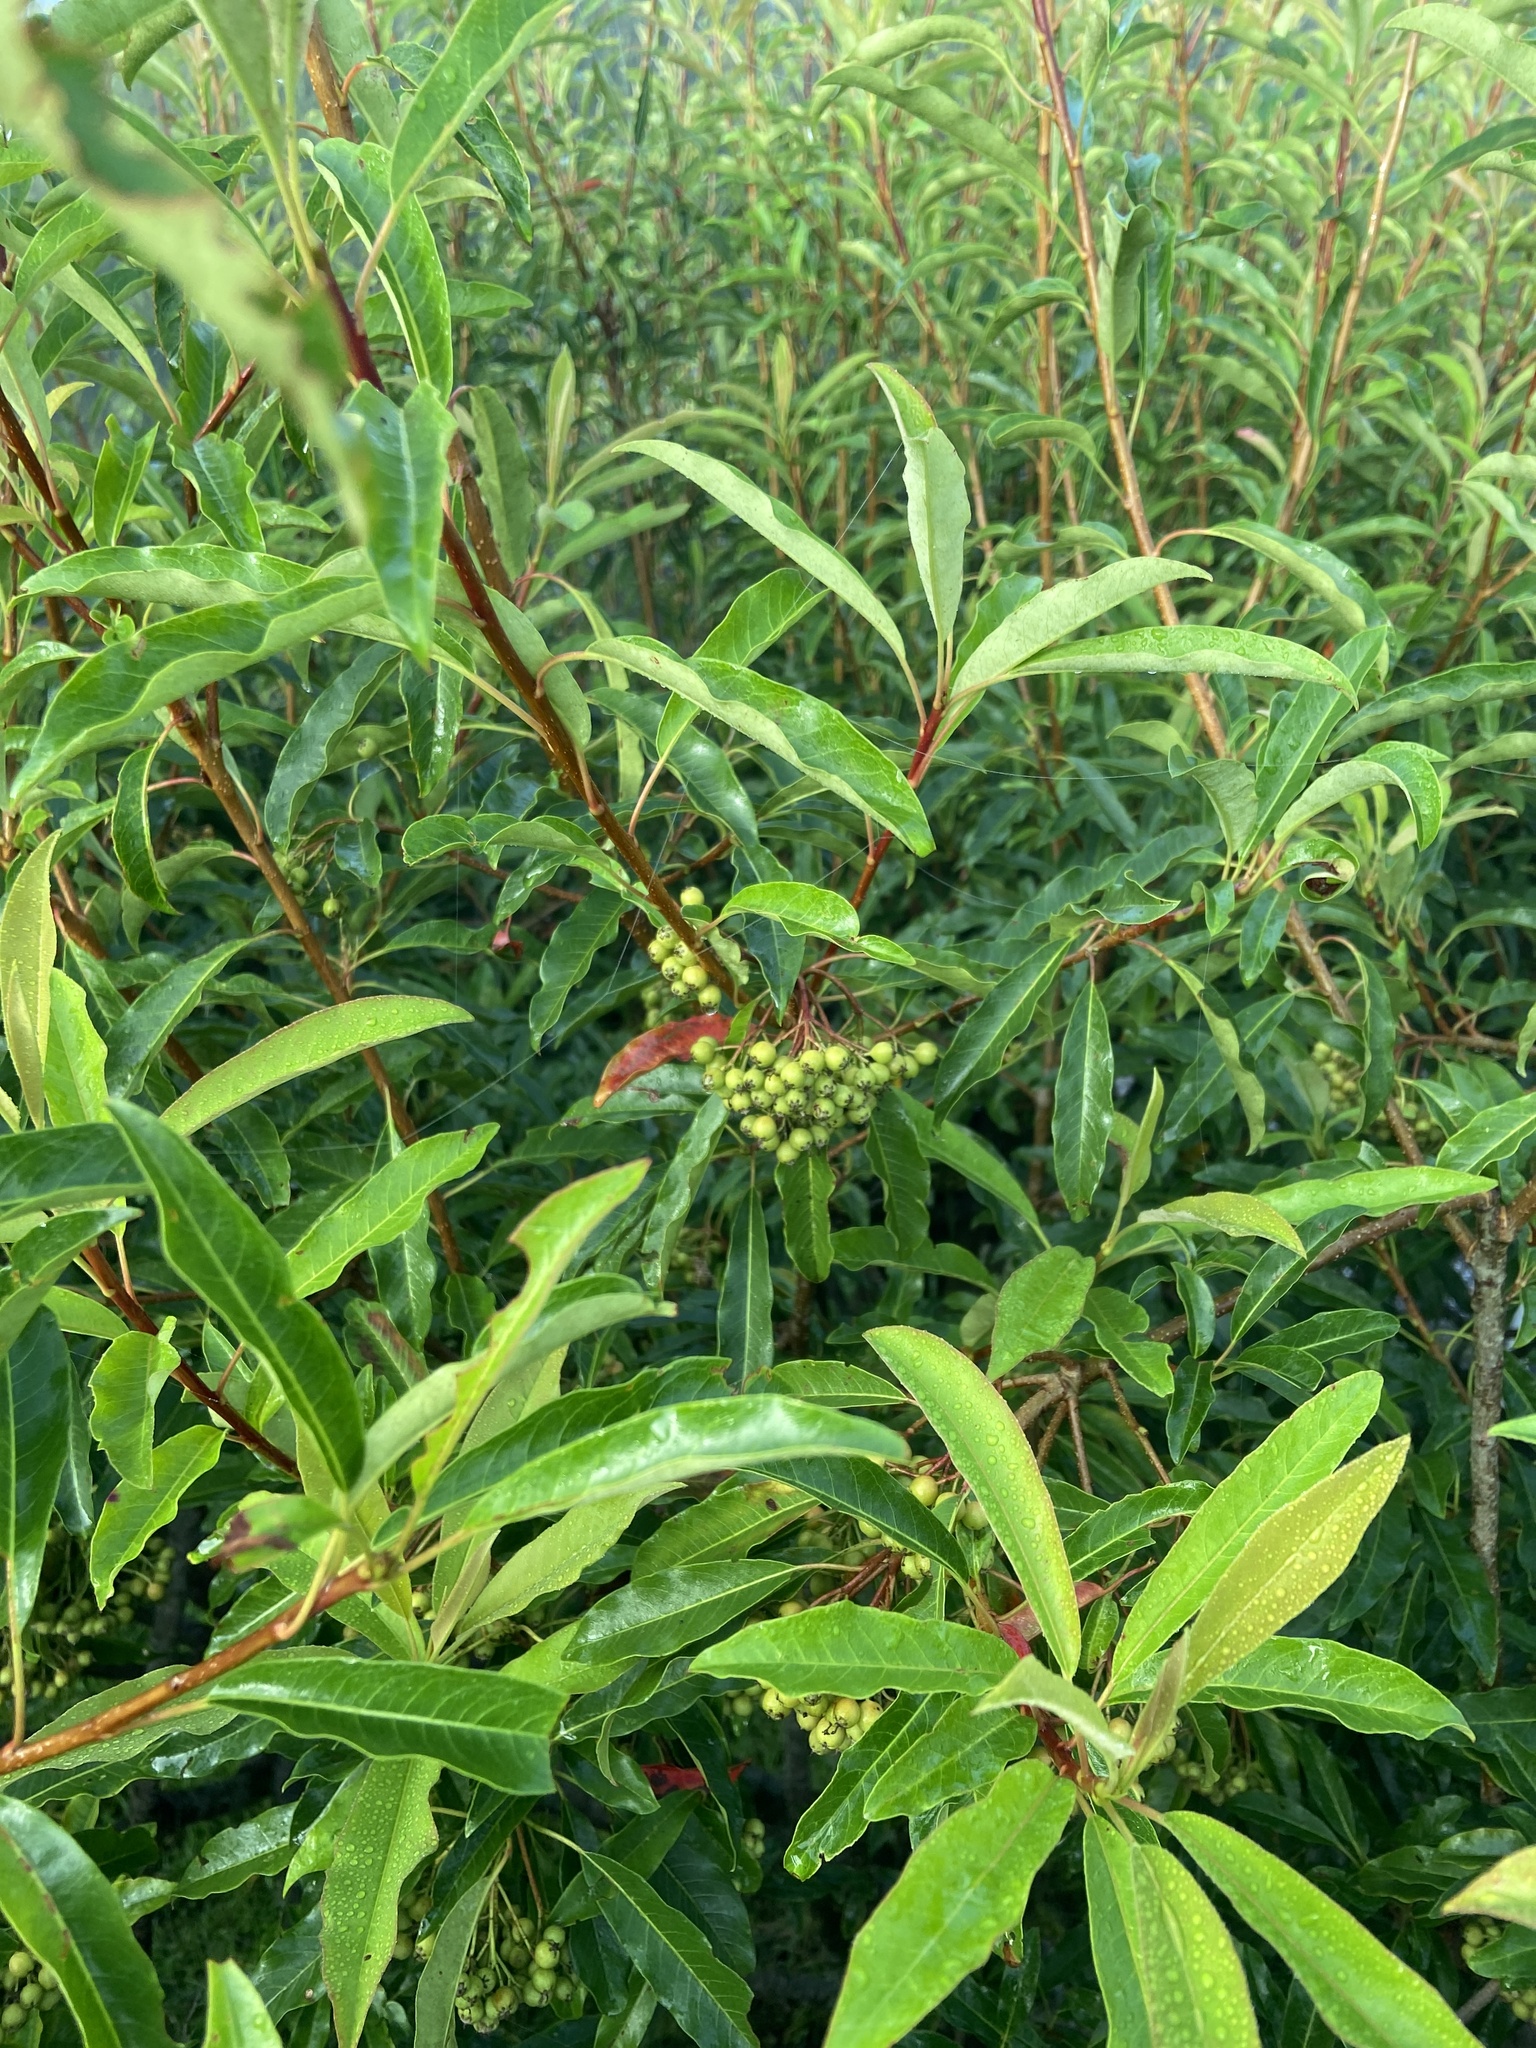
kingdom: Plantae
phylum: Tracheophyta
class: Magnoliopsida
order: Rosales
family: Rosaceae
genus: Stranvaesia
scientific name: Stranvaesia davidiana
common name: Chinese photinia
